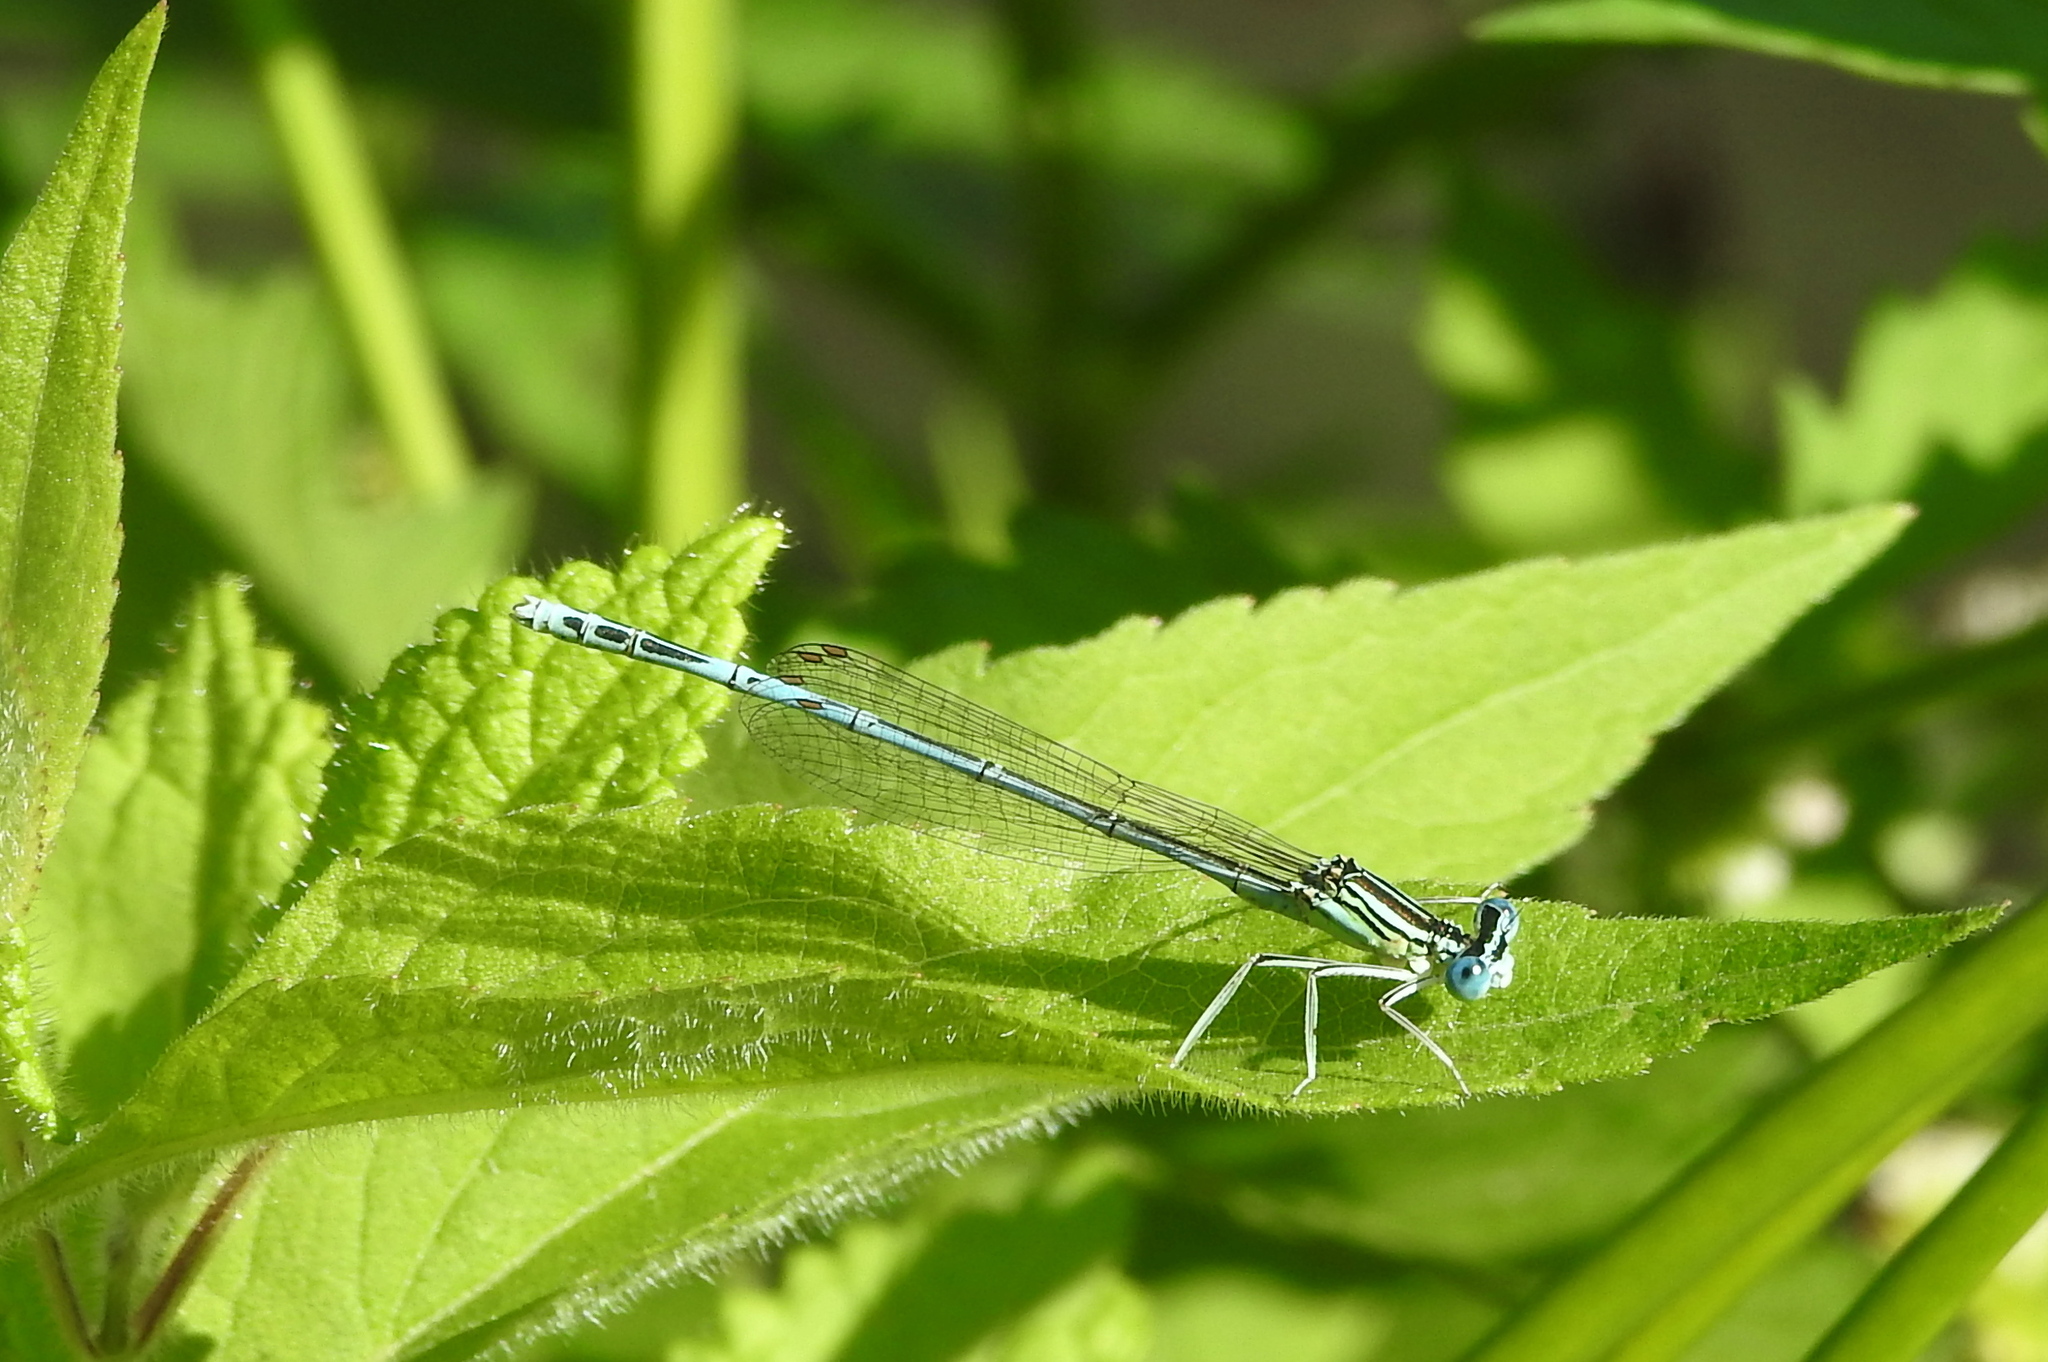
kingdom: Animalia
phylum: Arthropoda
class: Insecta
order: Odonata
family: Platycnemididae
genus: Platycnemis
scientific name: Platycnemis pennipes
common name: White-legged damselfly
